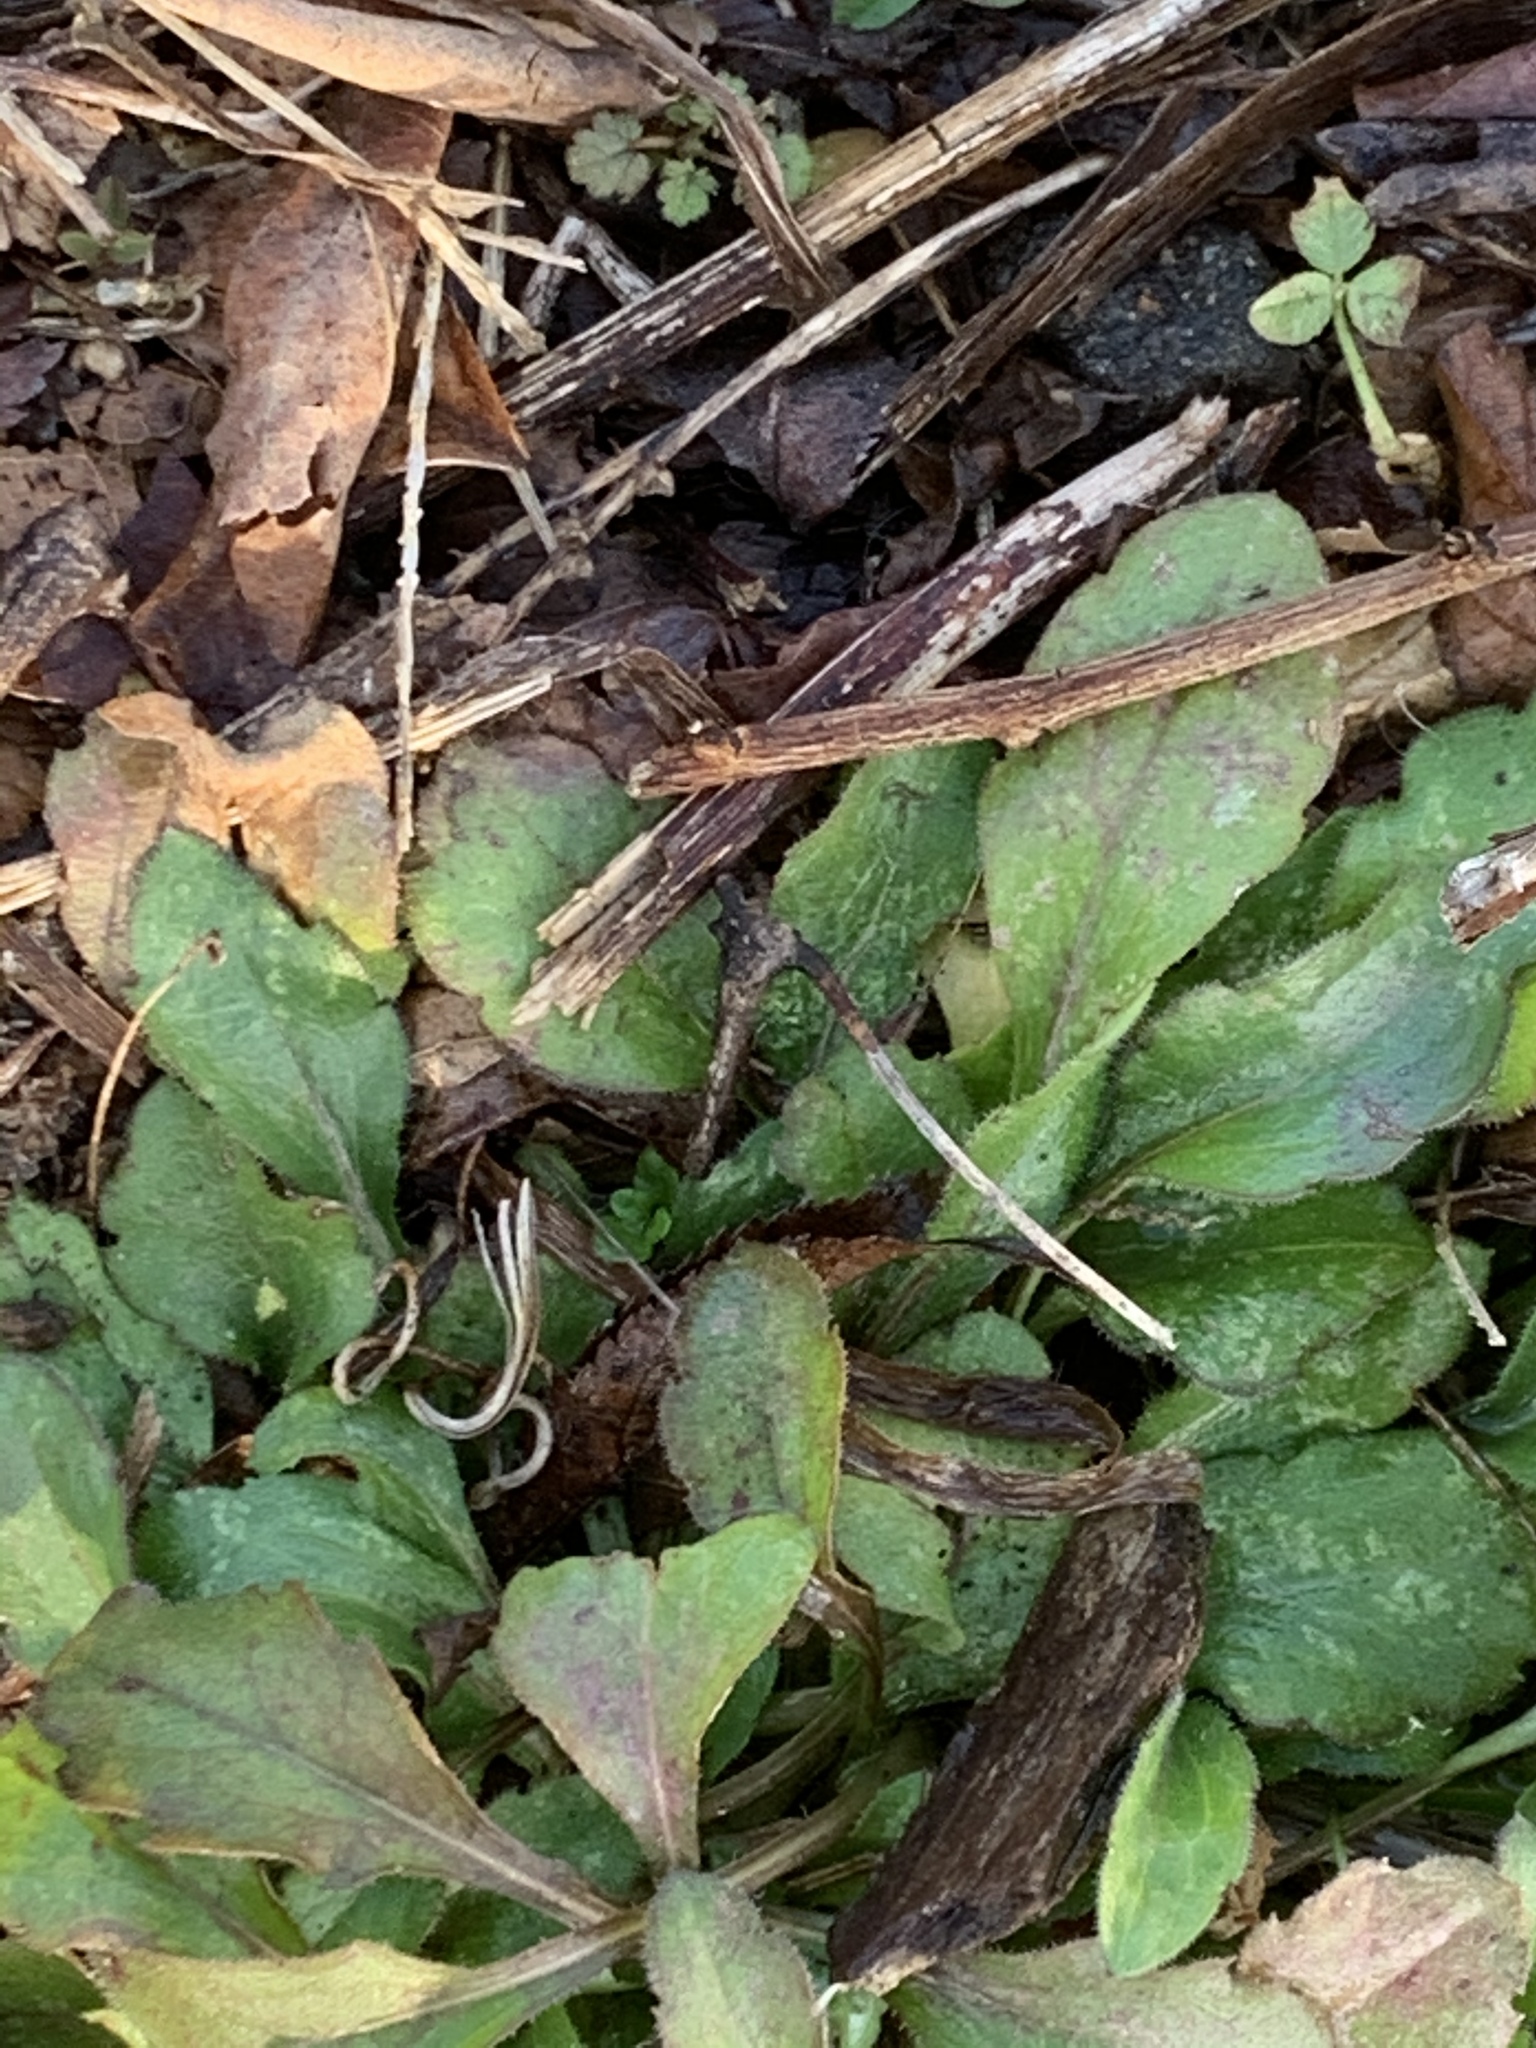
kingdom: Plantae
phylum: Tracheophyta
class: Magnoliopsida
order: Asterales
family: Asteraceae
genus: Erigeron
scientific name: Erigeron canadensis
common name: Canadian fleabane
